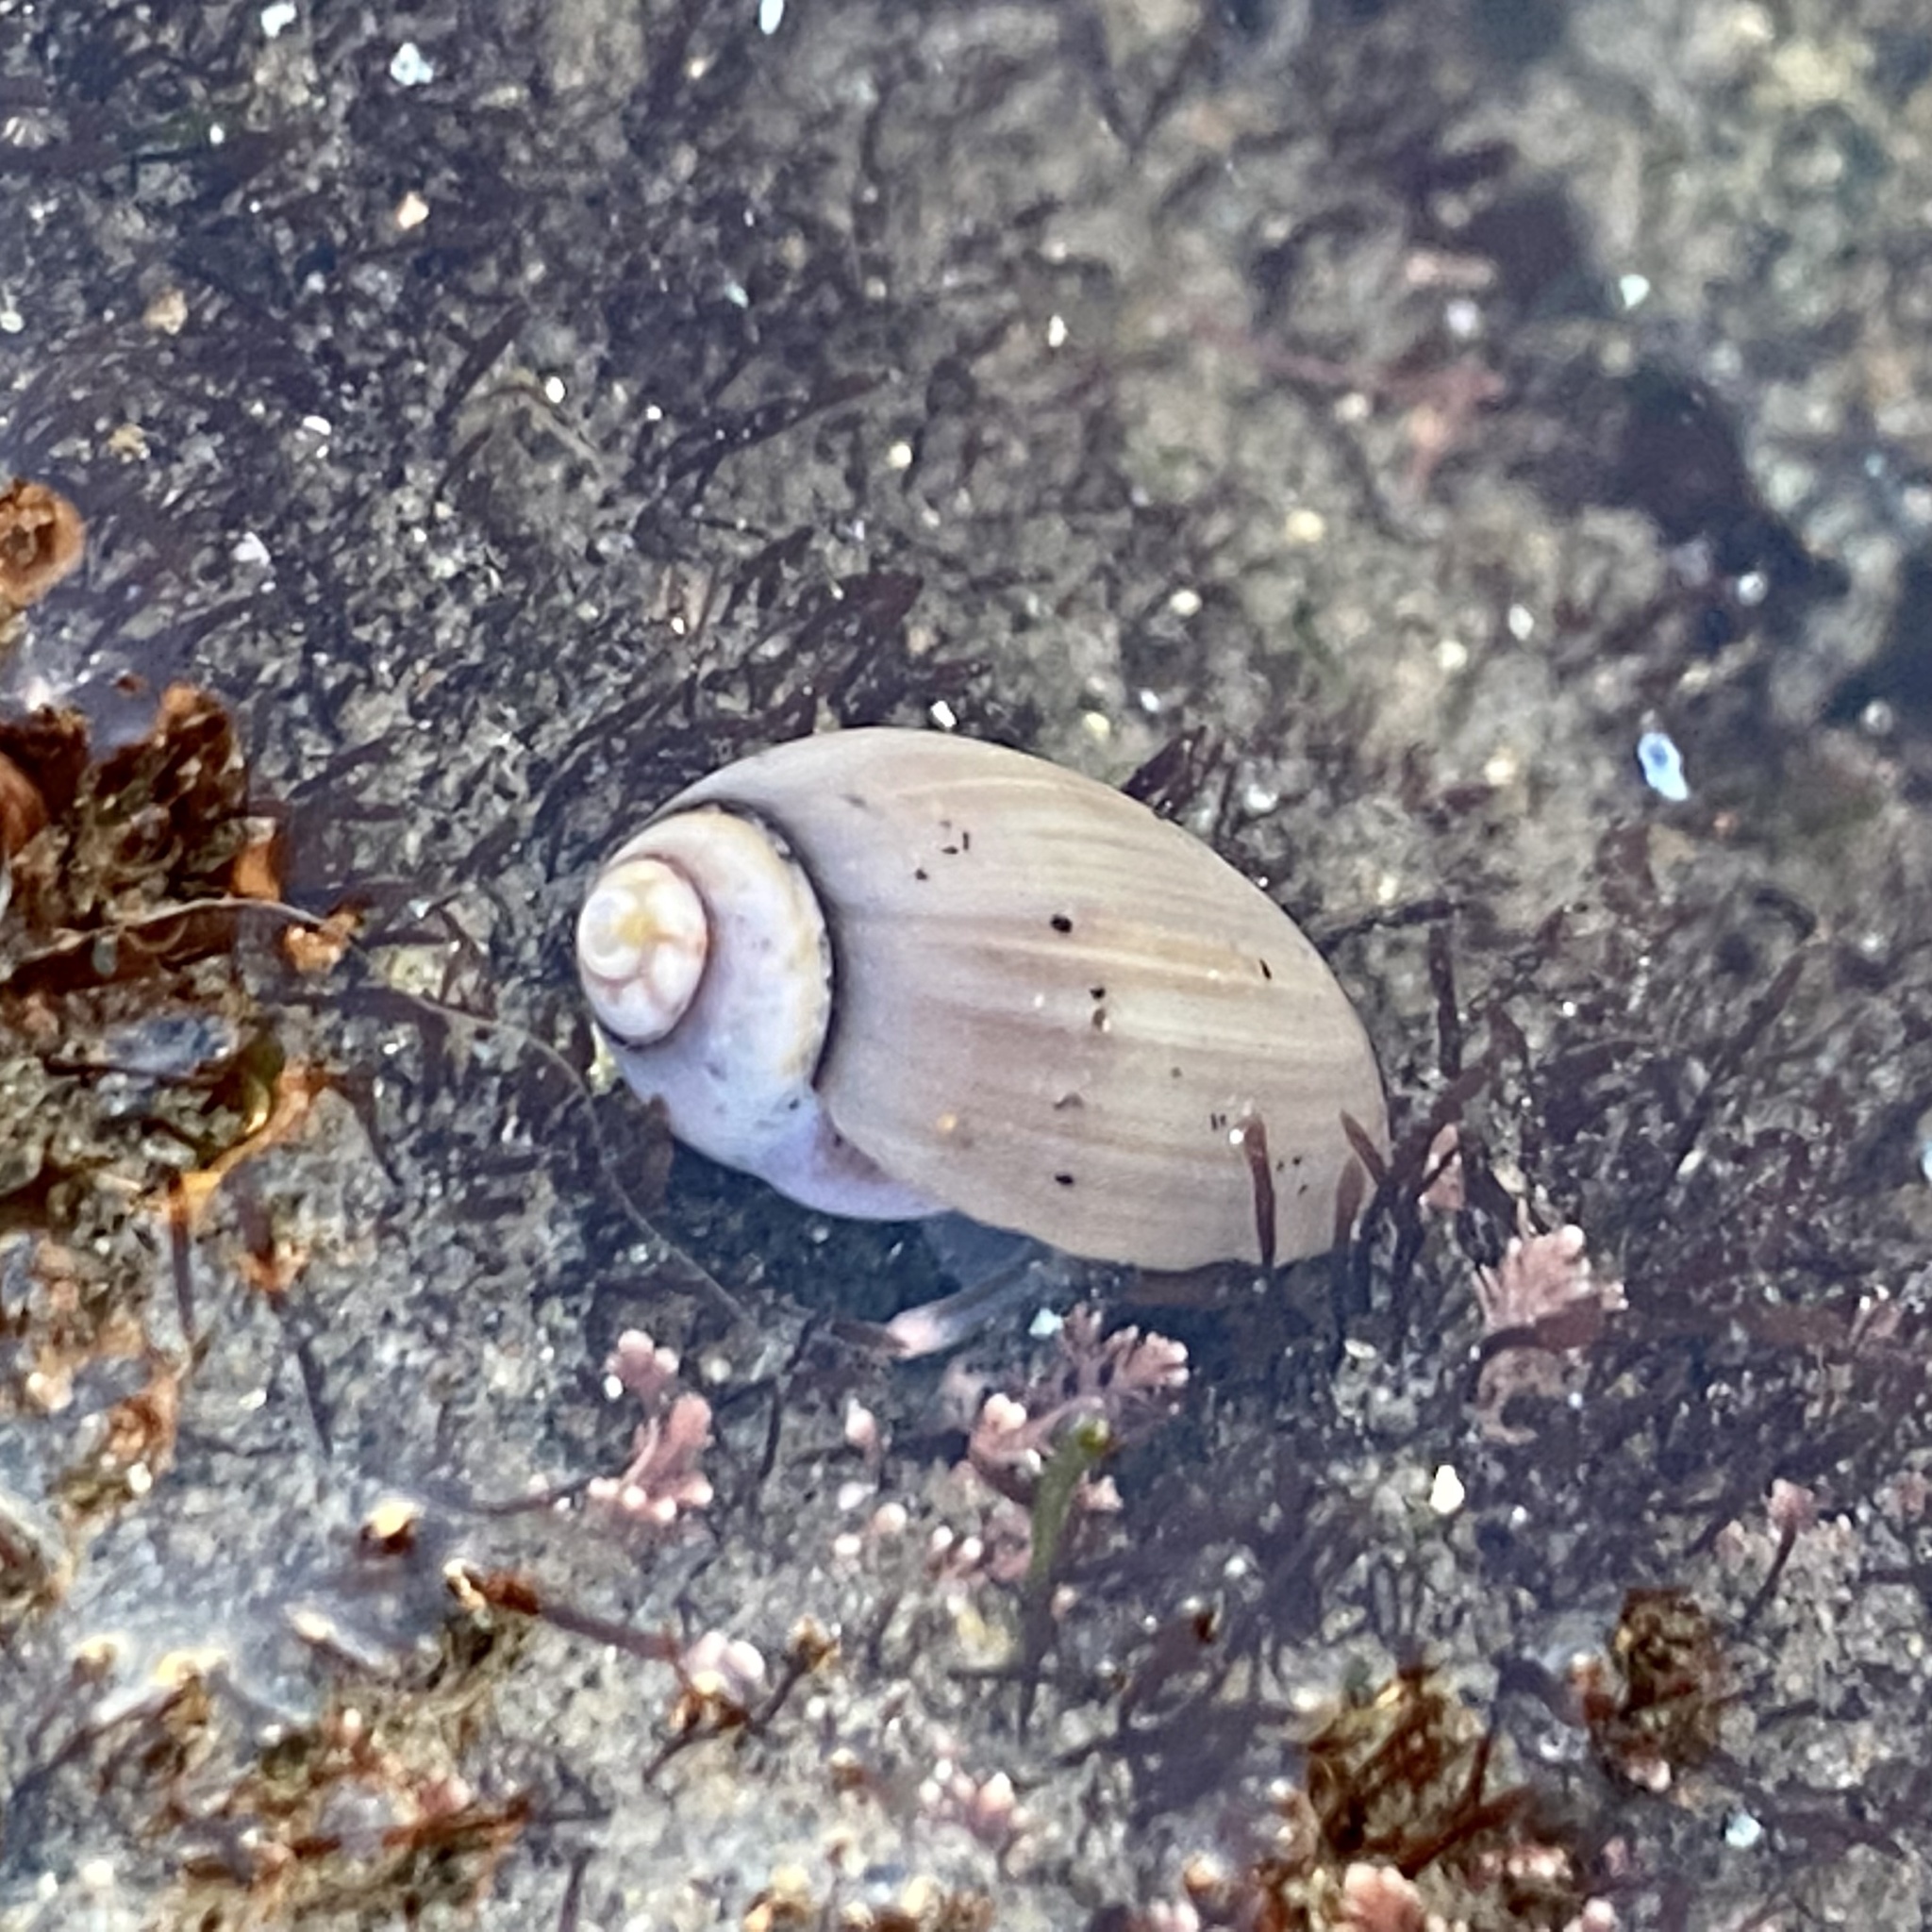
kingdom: Animalia
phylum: Mollusca
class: Gastropoda
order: Neogastropoda
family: Olividae
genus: Callianax
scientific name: Callianax biplicata
